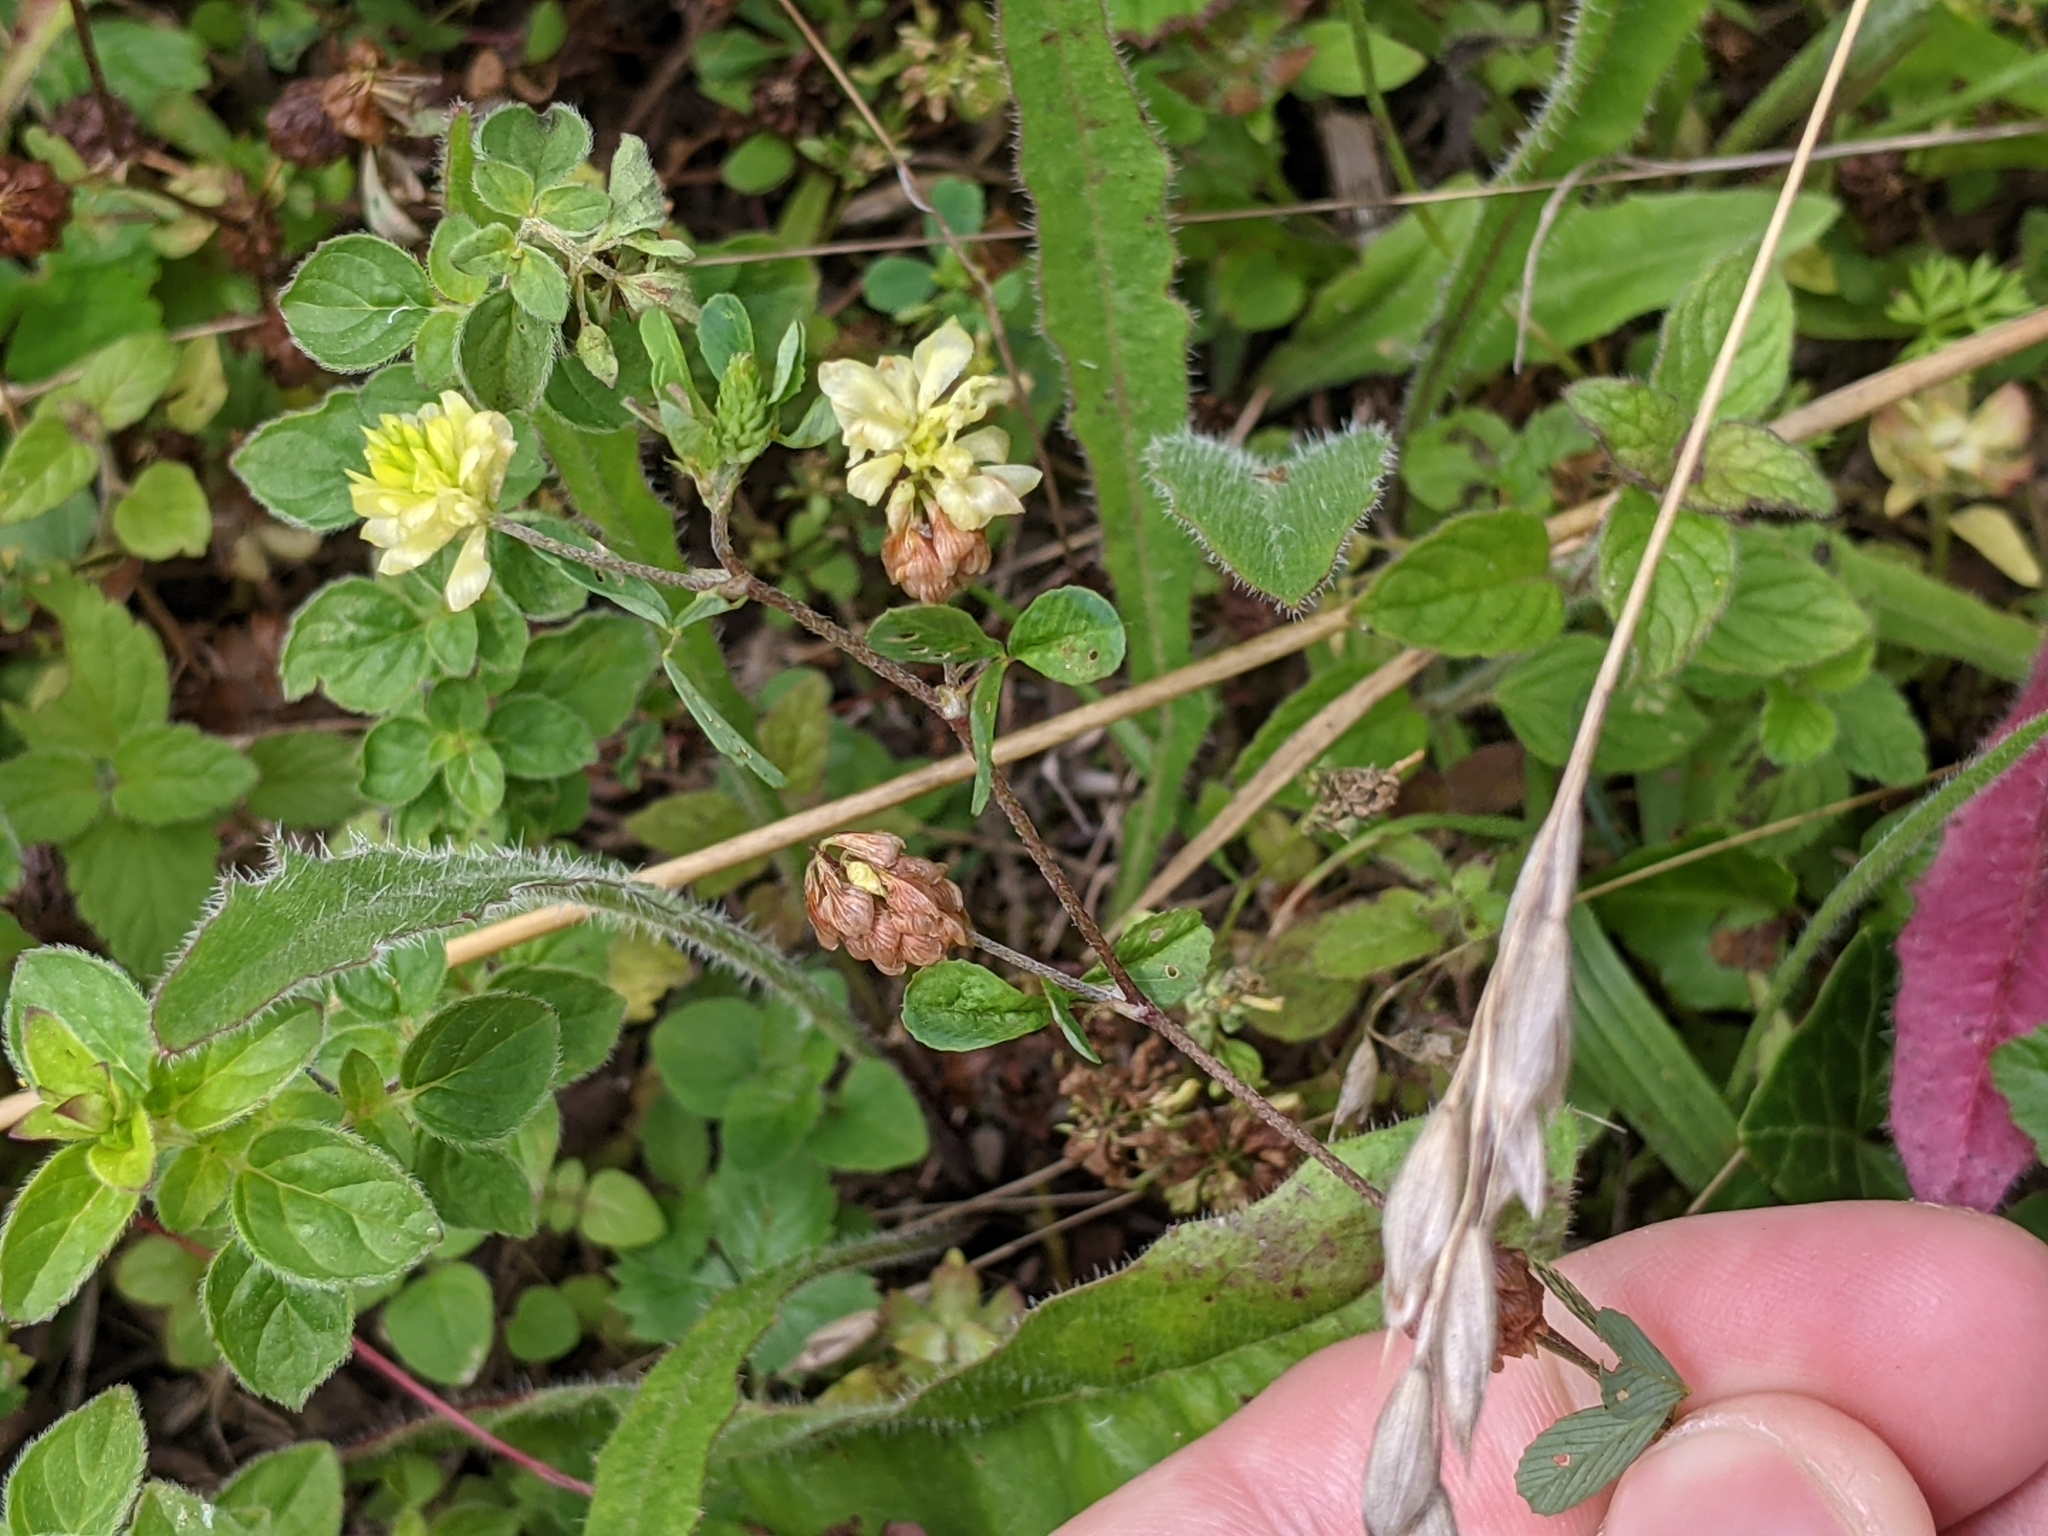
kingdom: Plantae
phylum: Tracheophyta
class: Magnoliopsida
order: Fabales
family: Fabaceae
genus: Trifolium
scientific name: Trifolium campestre
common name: Field clover
